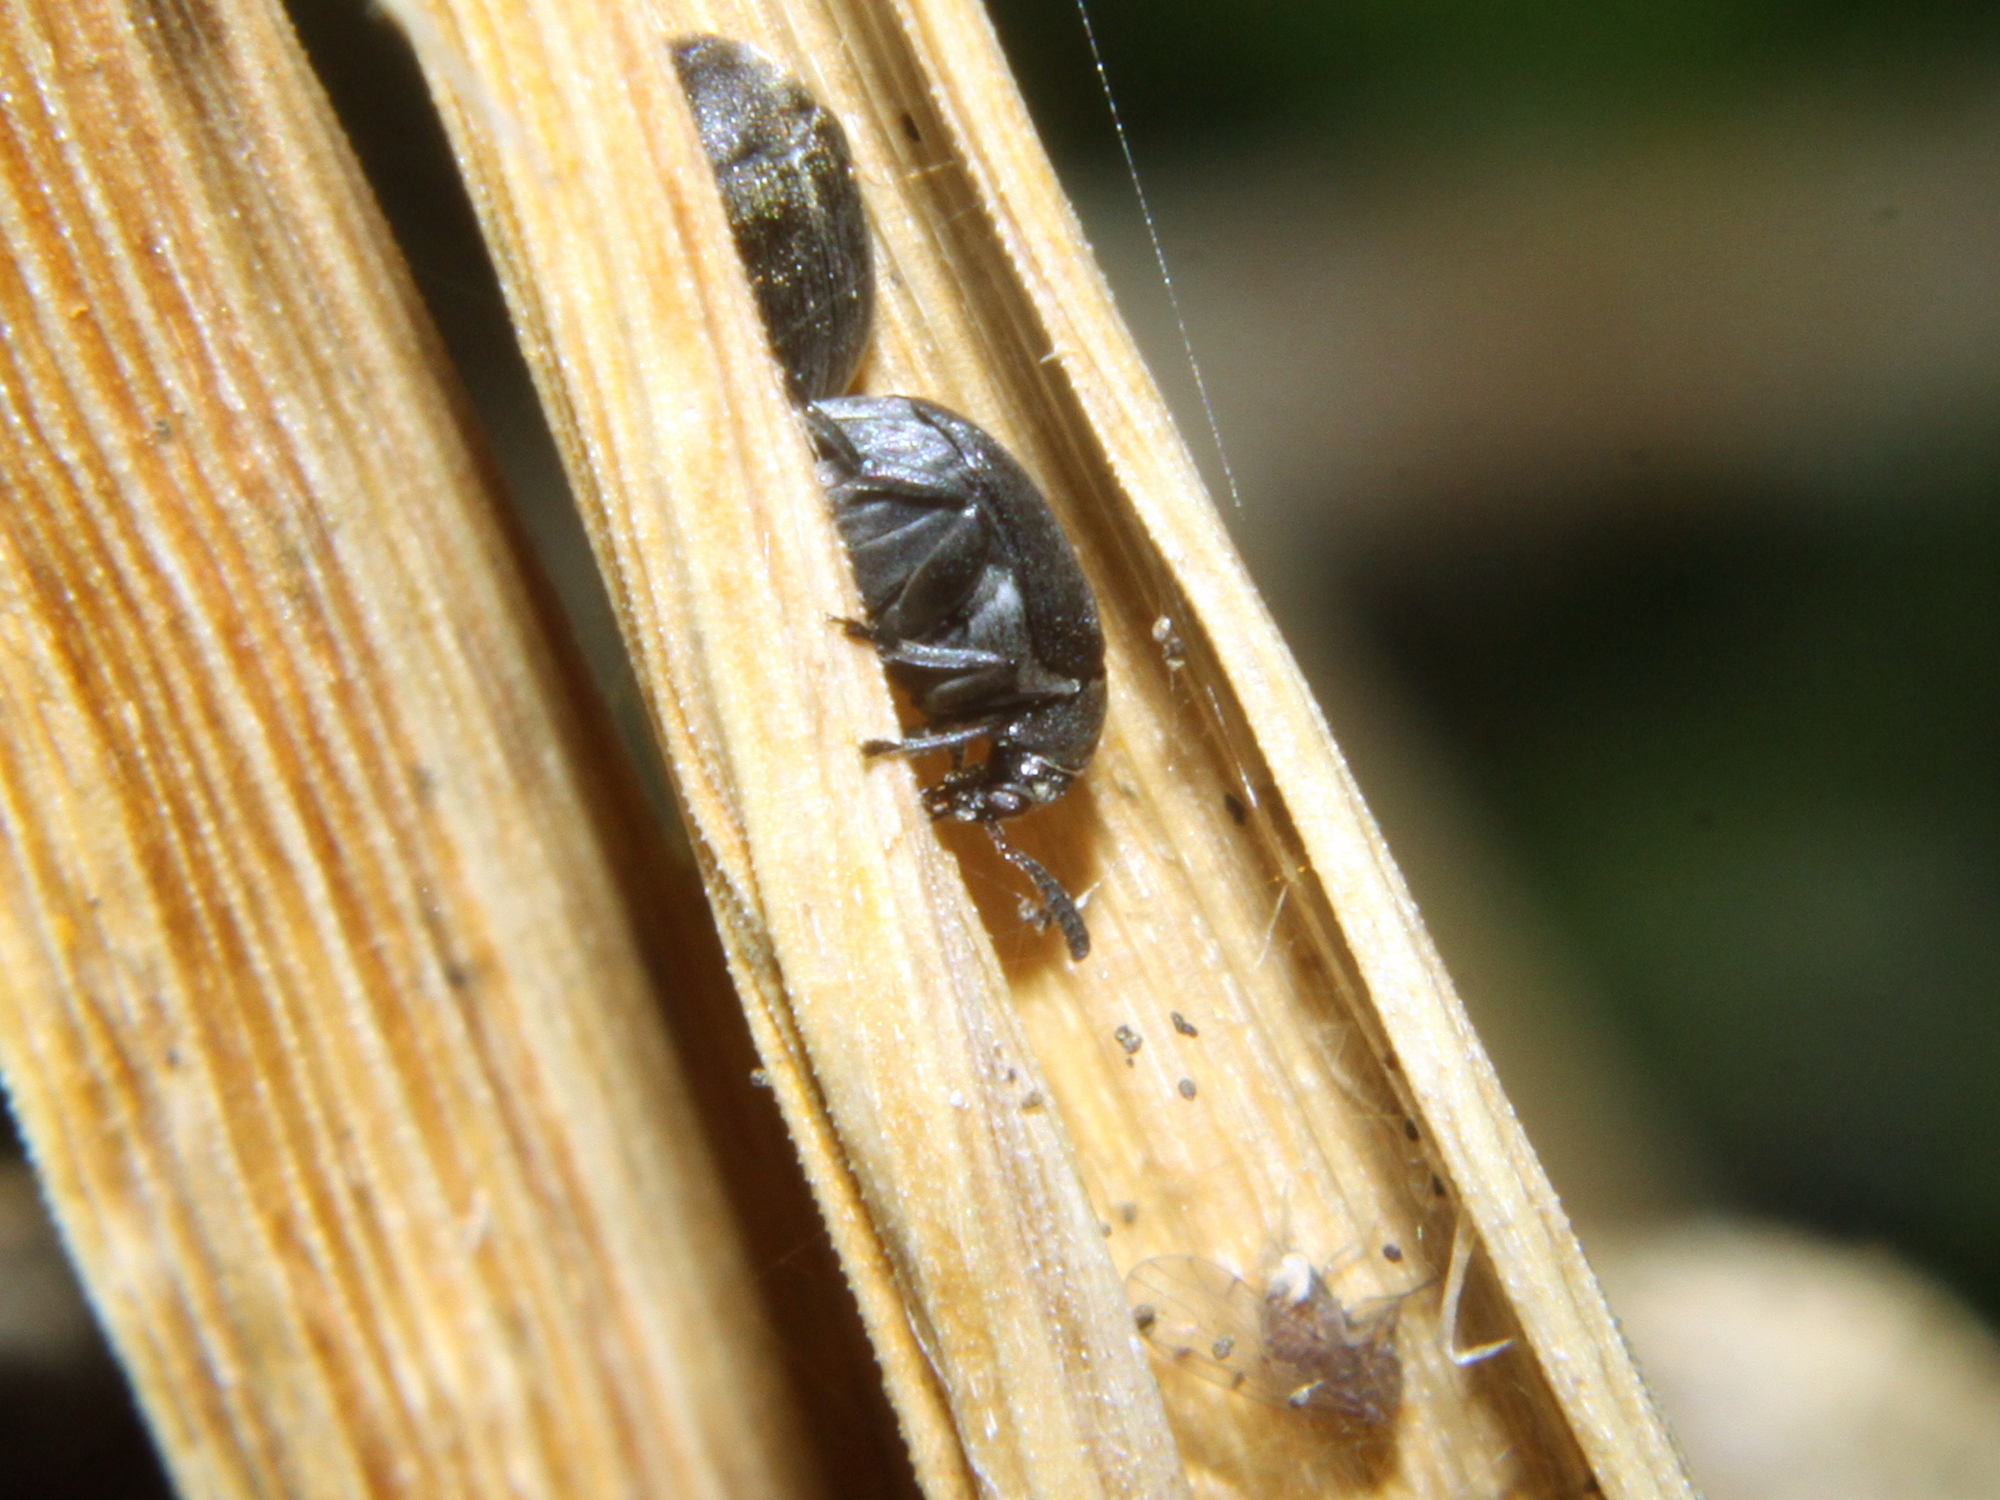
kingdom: Animalia
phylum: Arthropoda
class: Insecta
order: Coleoptera
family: Chrysomelidae
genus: Bruchidius
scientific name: Bruchidius villosus
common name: Scotch broom bruchid
